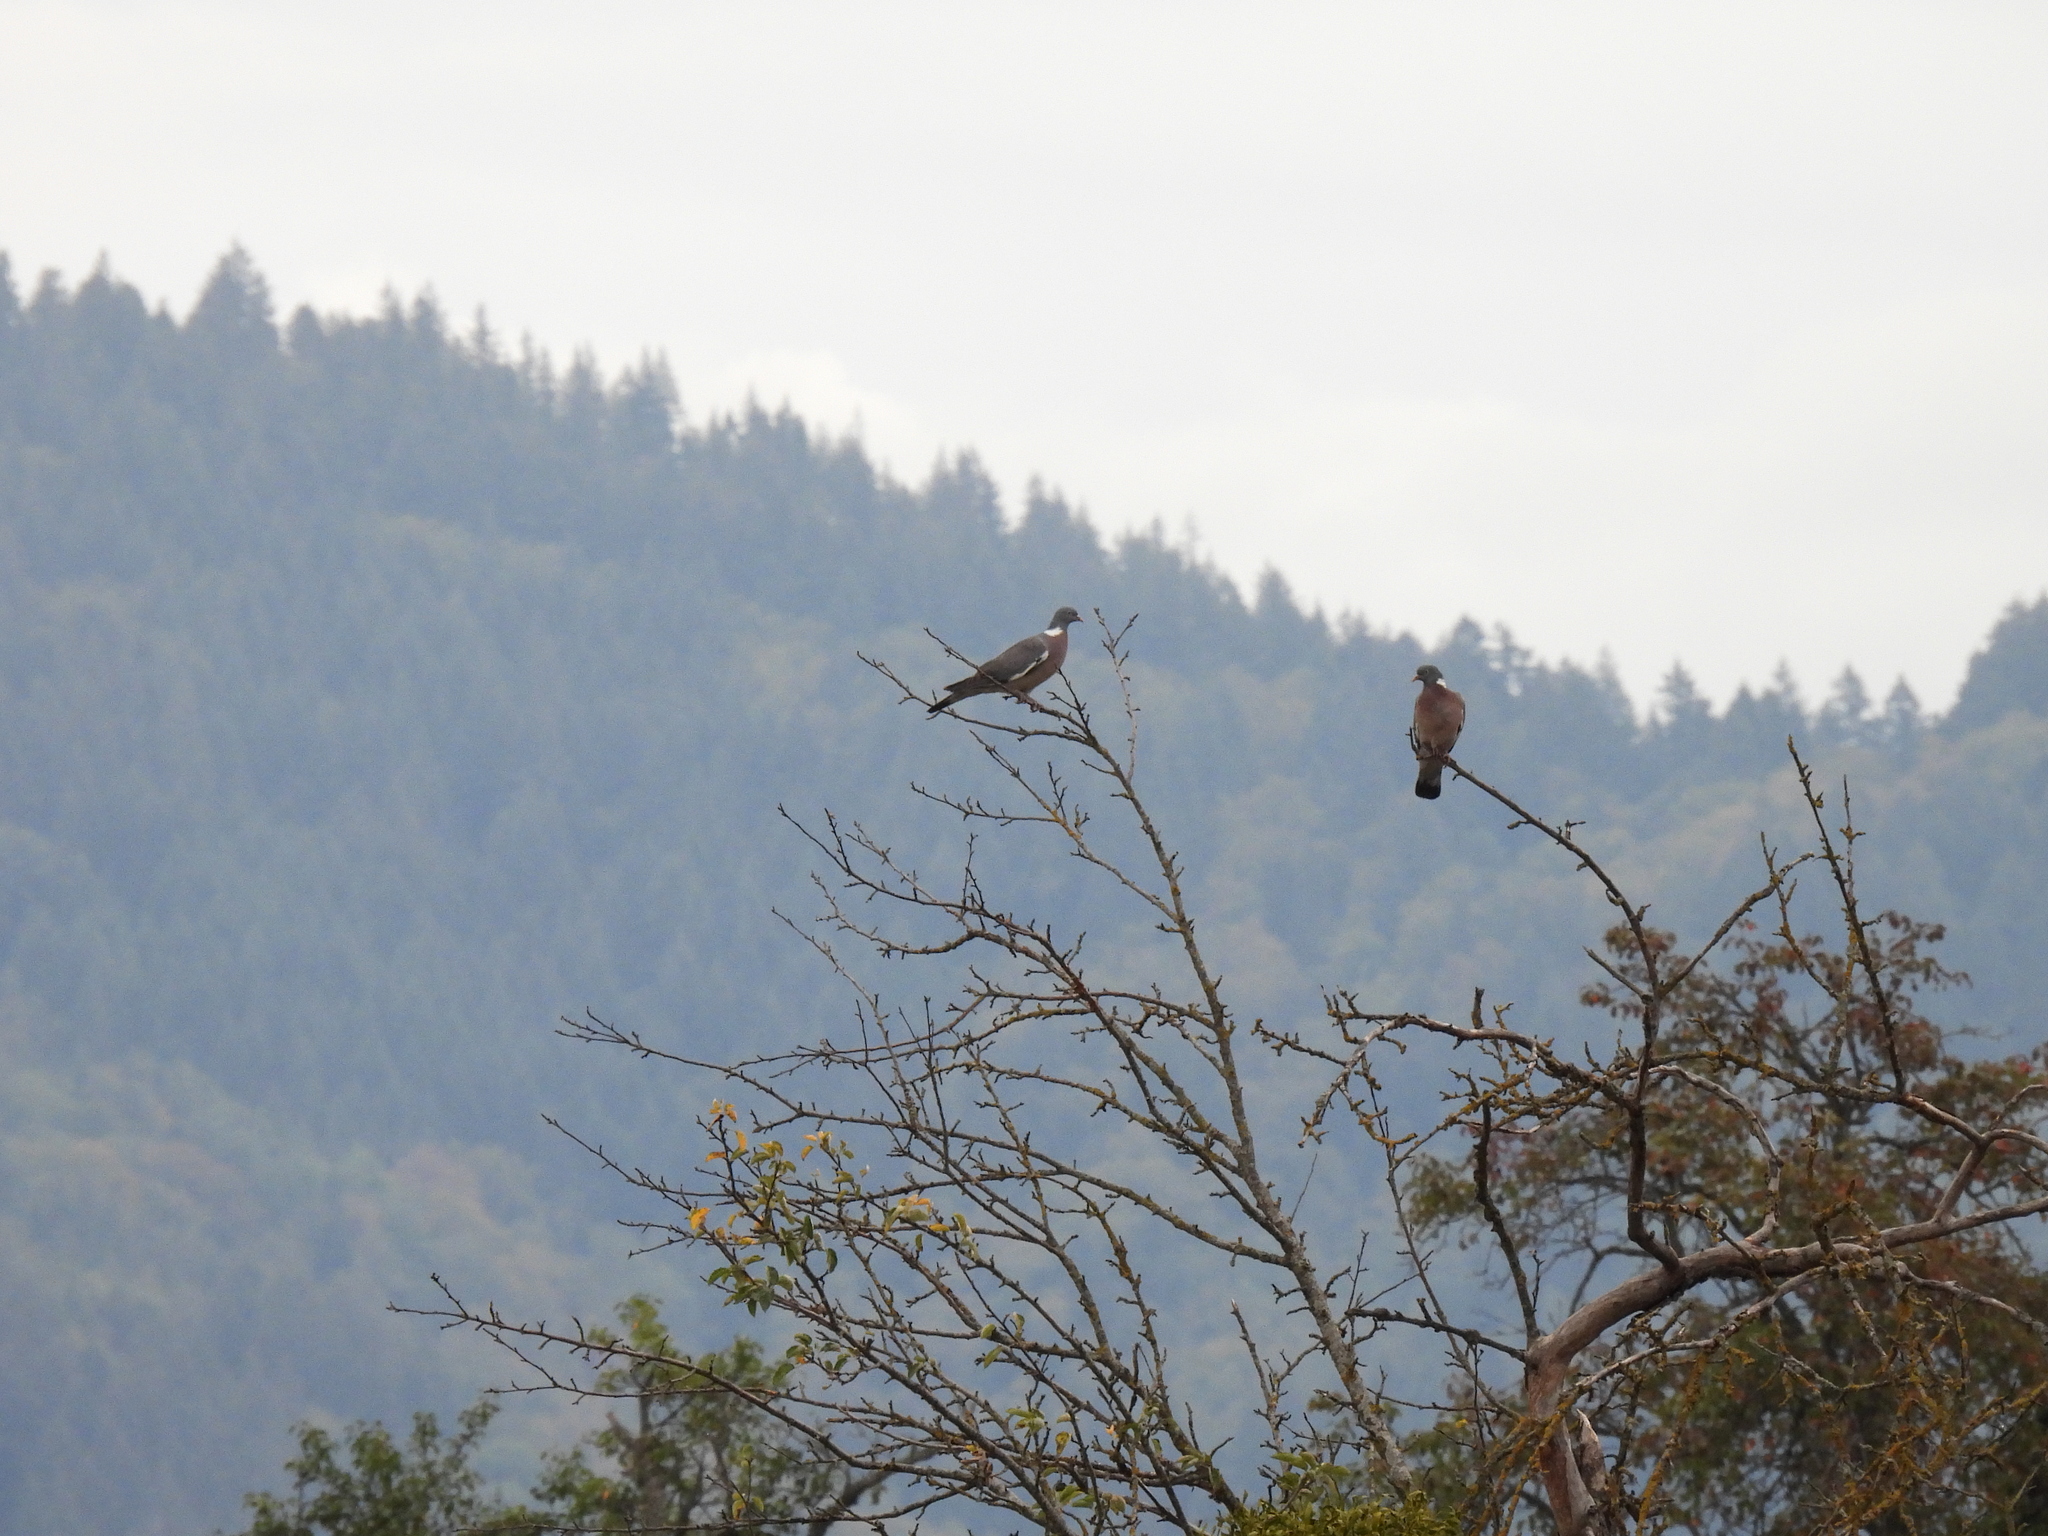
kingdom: Animalia
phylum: Chordata
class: Aves
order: Columbiformes
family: Columbidae
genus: Columba
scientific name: Columba palumbus
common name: Common wood pigeon
